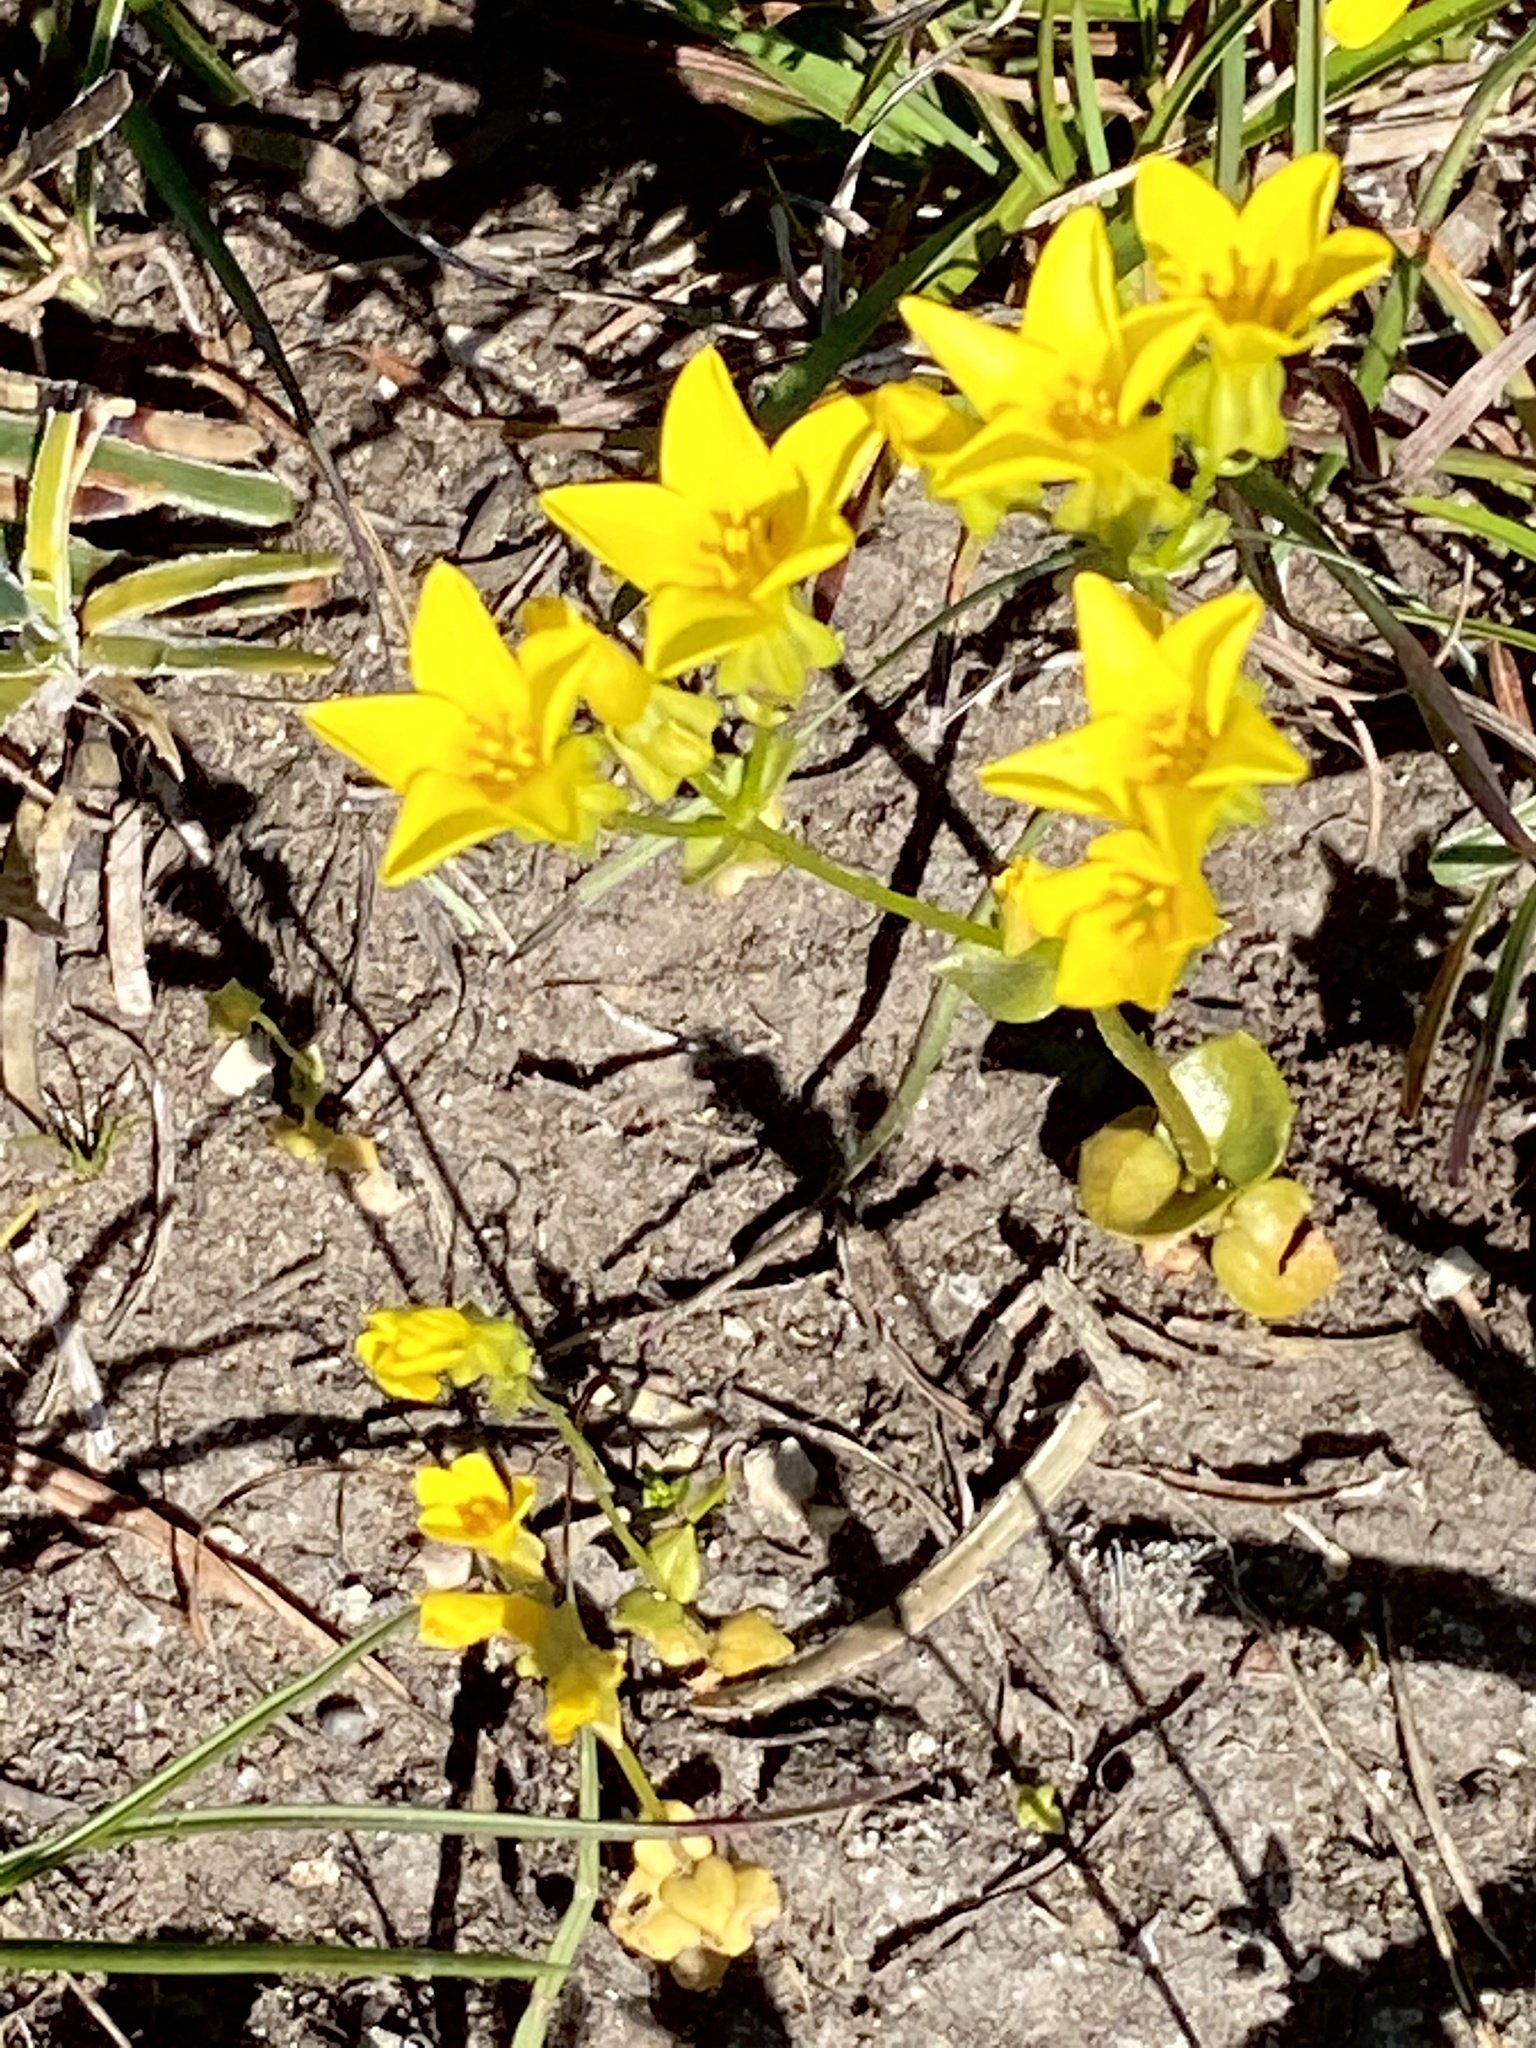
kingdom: Plantae
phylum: Tracheophyta
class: Magnoliopsida
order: Gentianales
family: Gentianaceae
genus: Sebaea
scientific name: Sebaea grisebachiana
